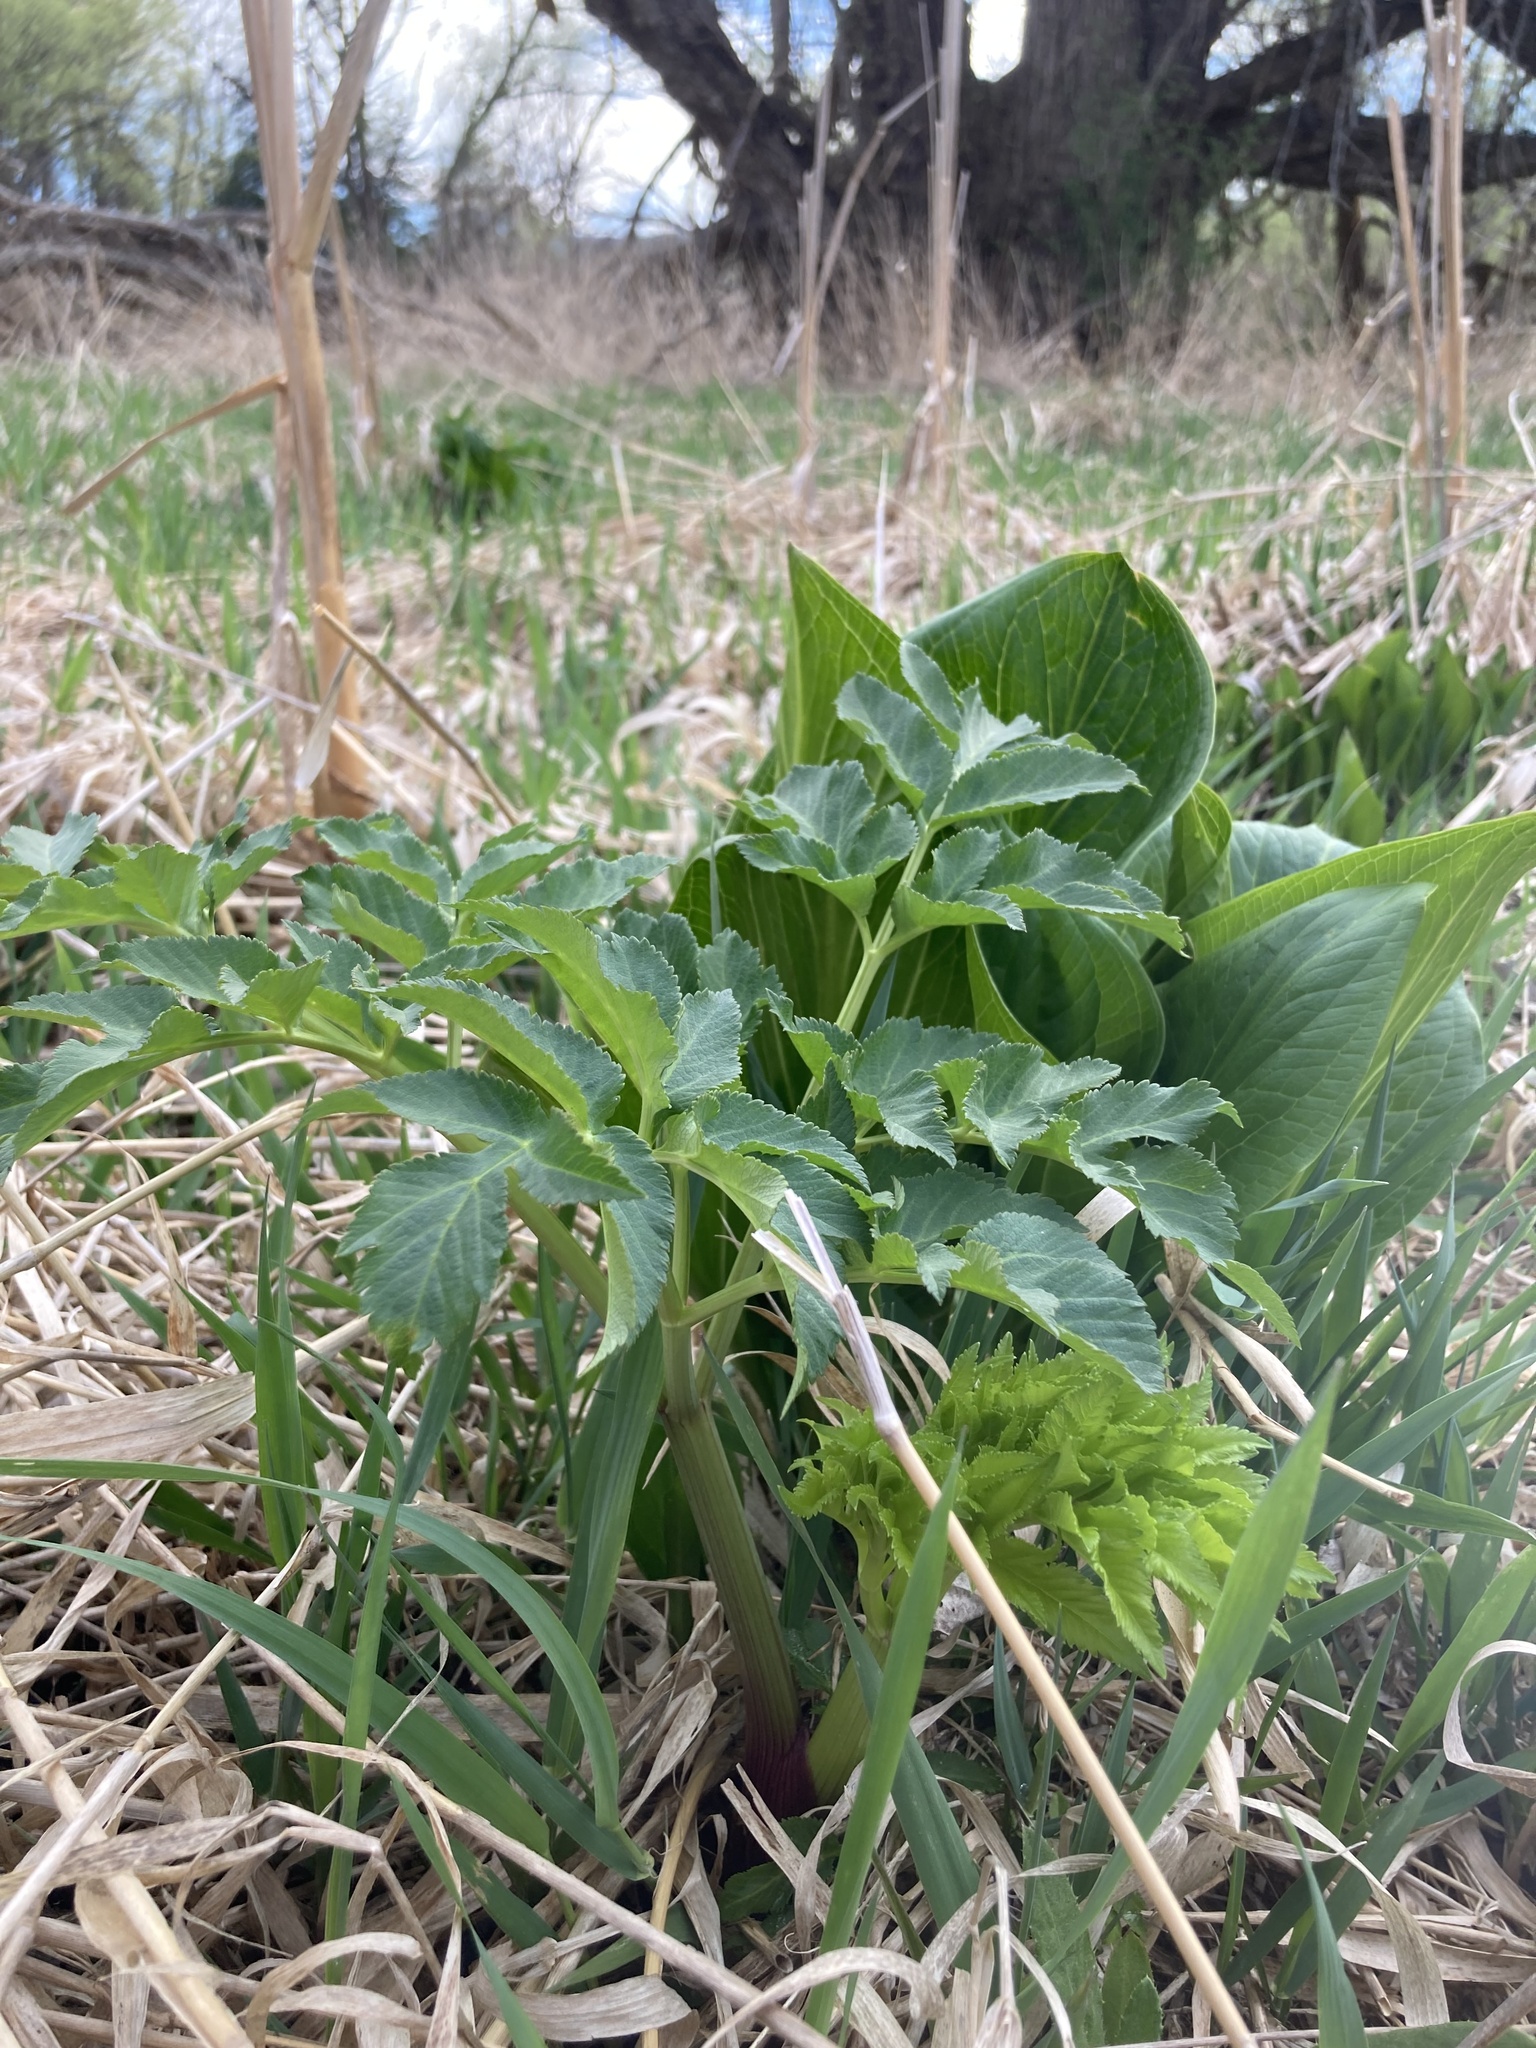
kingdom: Plantae
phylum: Tracheophyta
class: Magnoliopsida
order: Apiales
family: Apiaceae
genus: Angelica
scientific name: Angelica atropurpurea
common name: Great angelica
